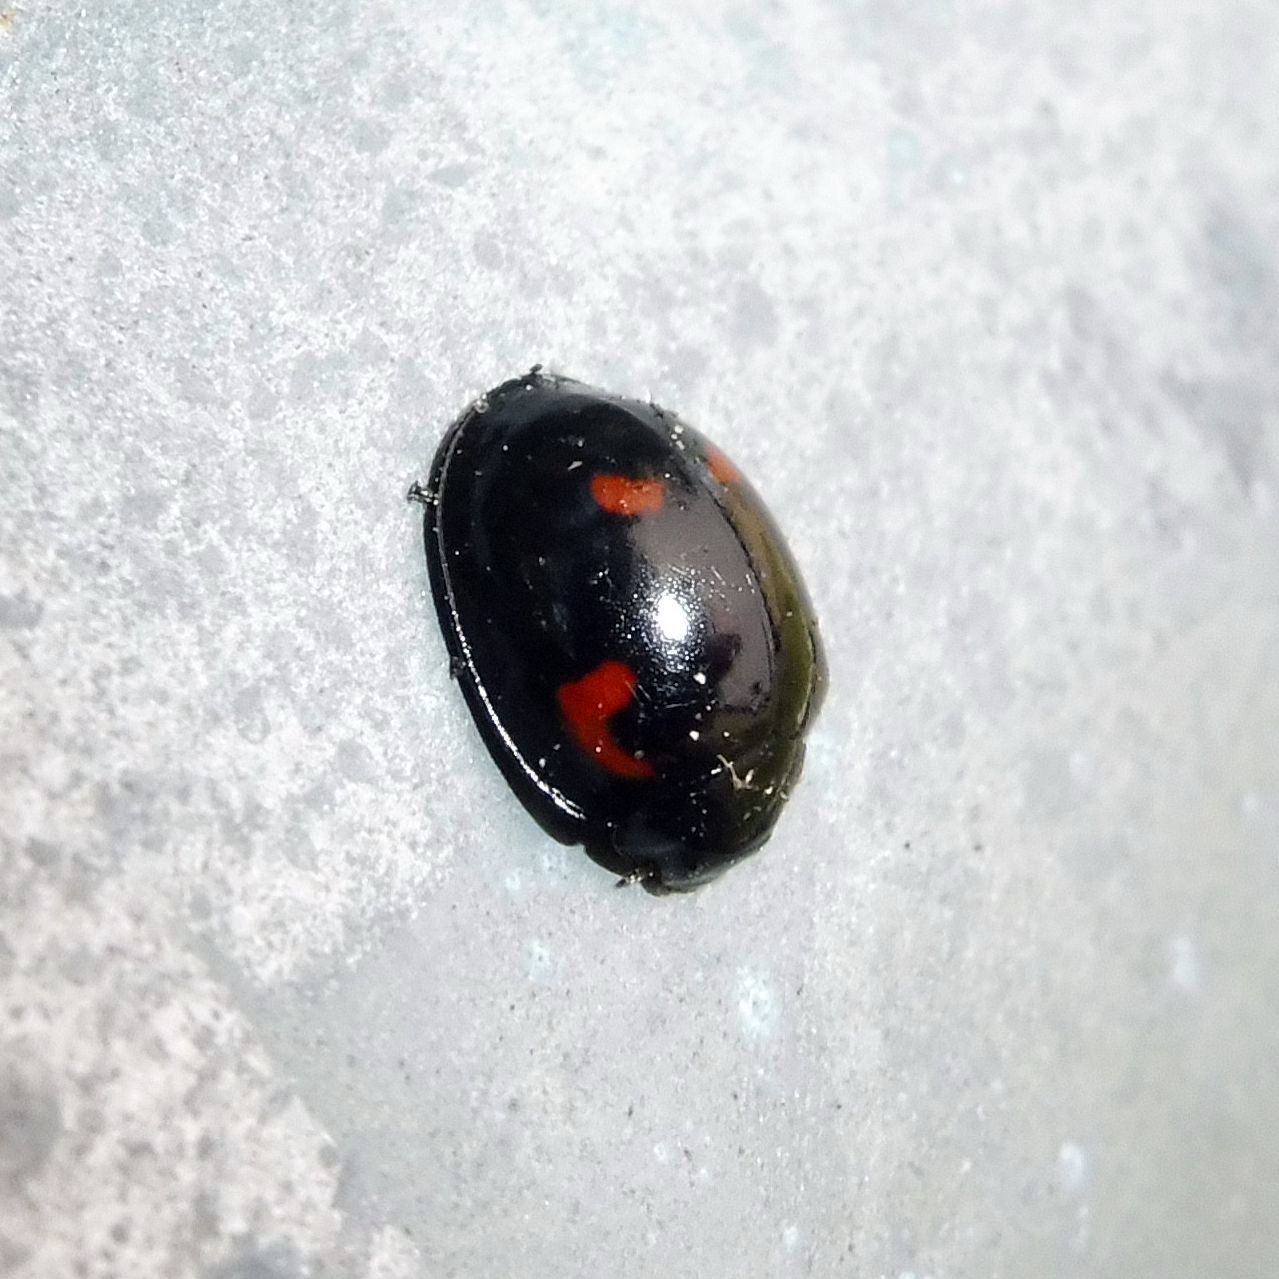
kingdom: Animalia
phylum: Arthropoda
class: Insecta
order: Coleoptera
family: Coccinellidae
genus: Brumus
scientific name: Brumus quadripustulatus
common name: Ladybird beetle
